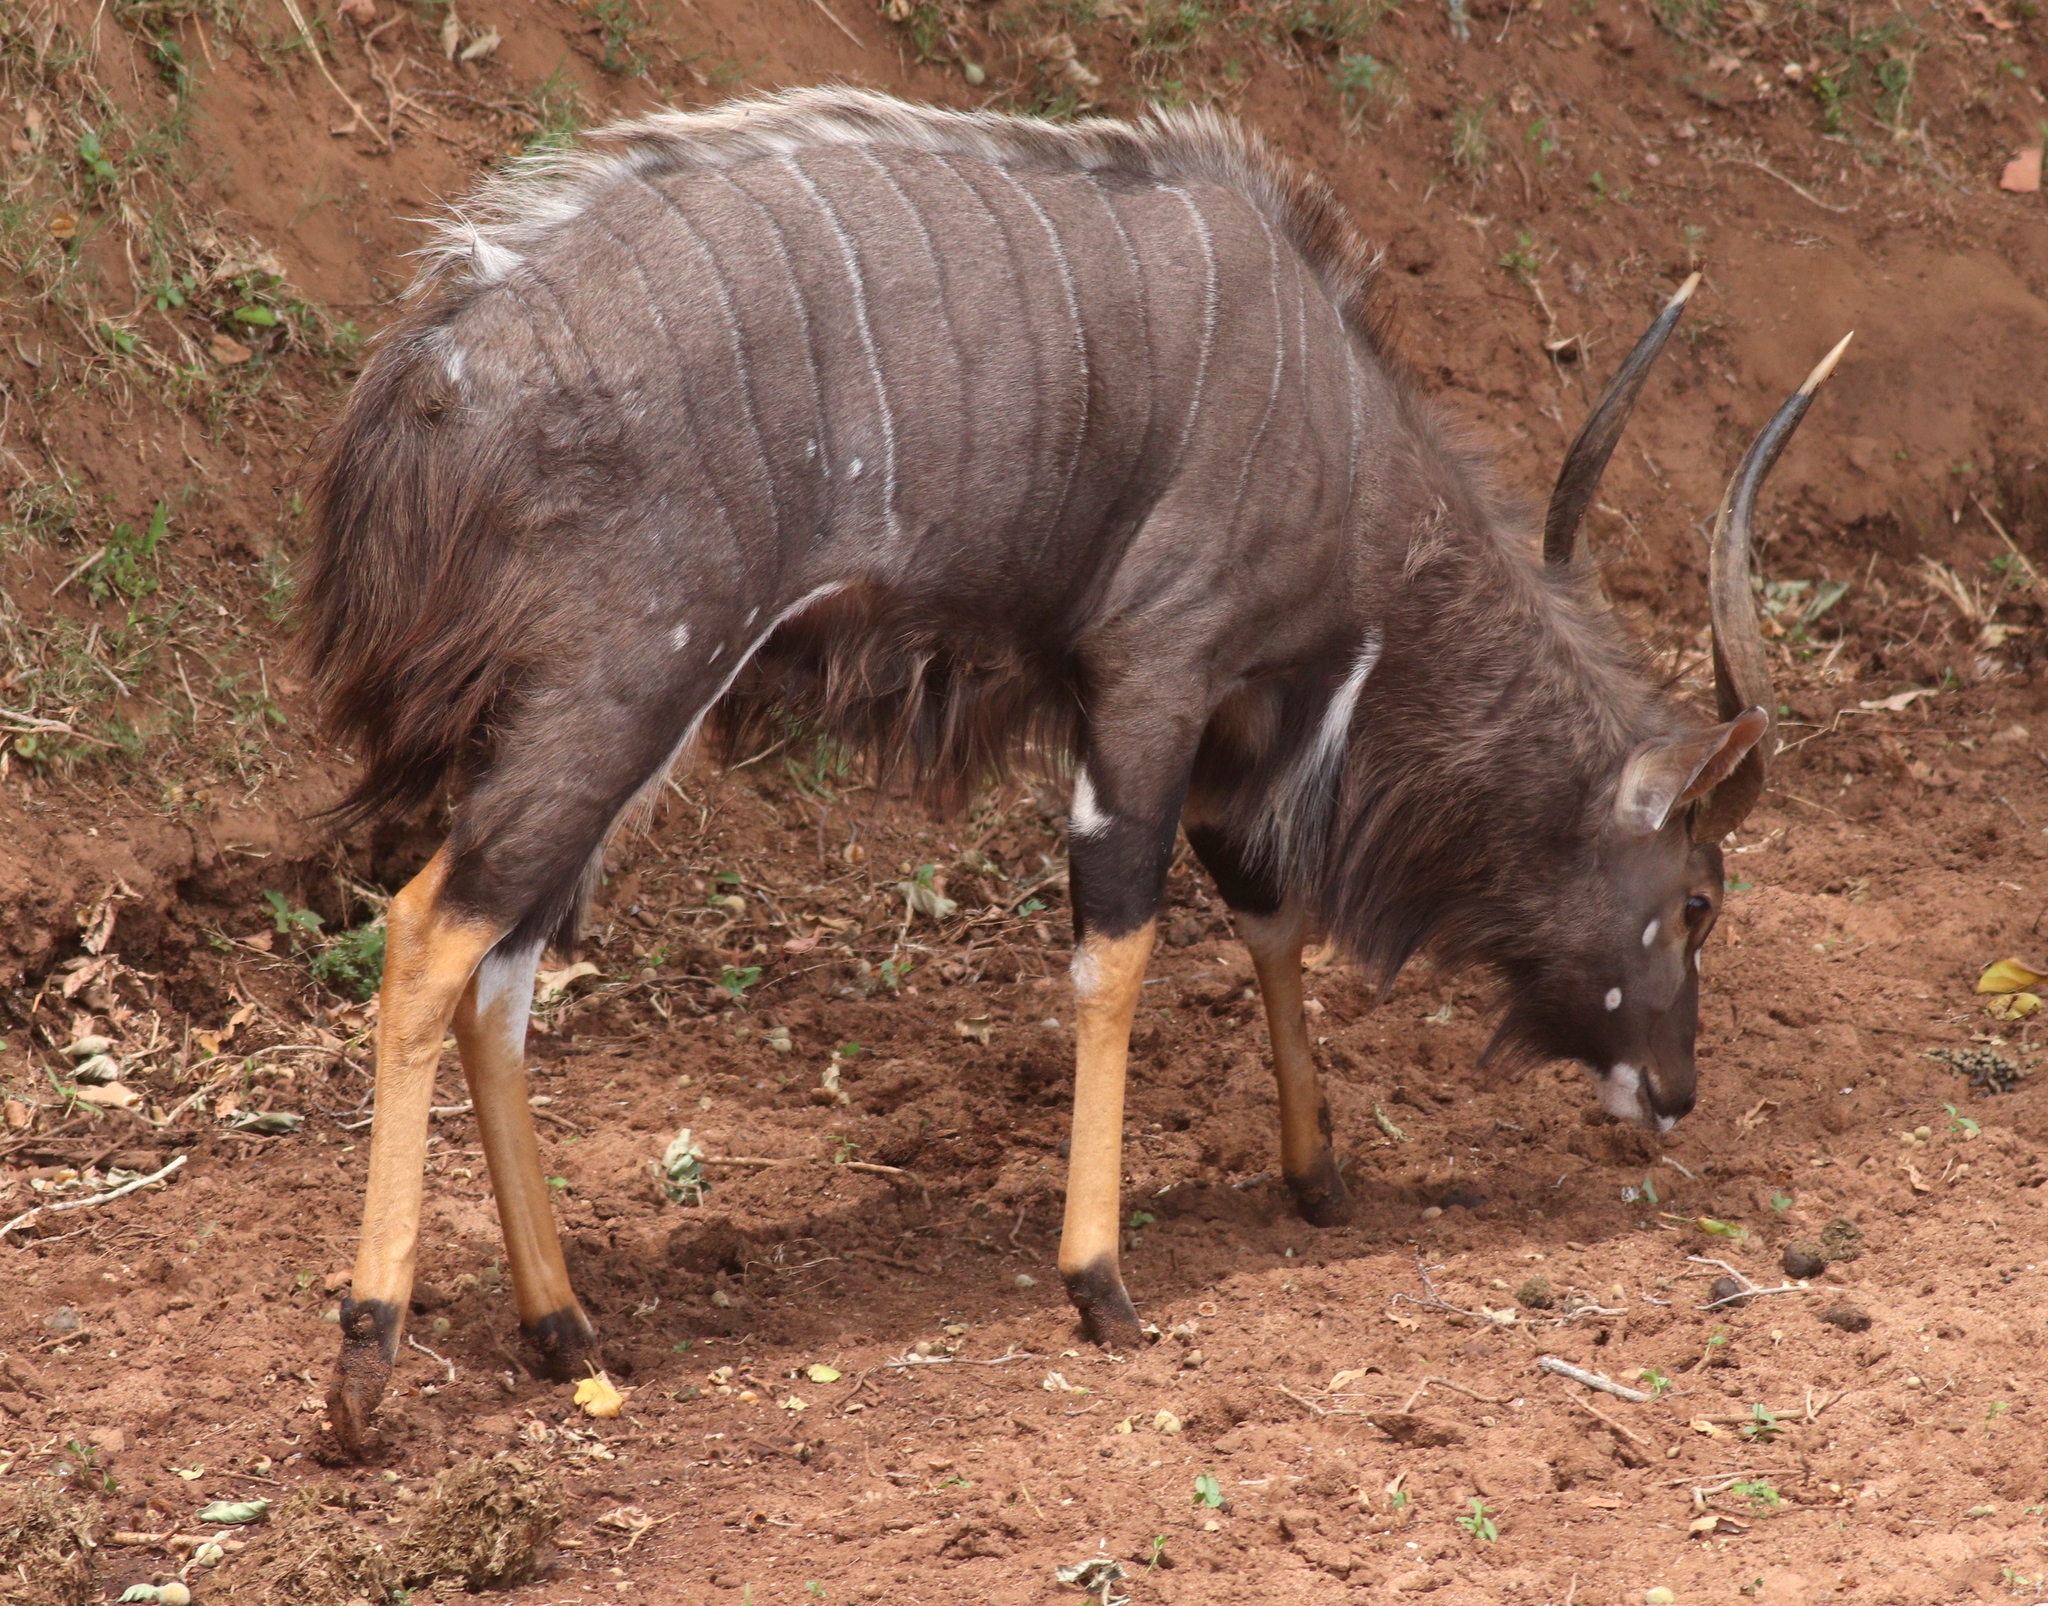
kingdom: Animalia
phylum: Chordata
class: Mammalia
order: Artiodactyla
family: Bovidae
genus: Tragelaphus
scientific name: Tragelaphus angasii
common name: Nyala
